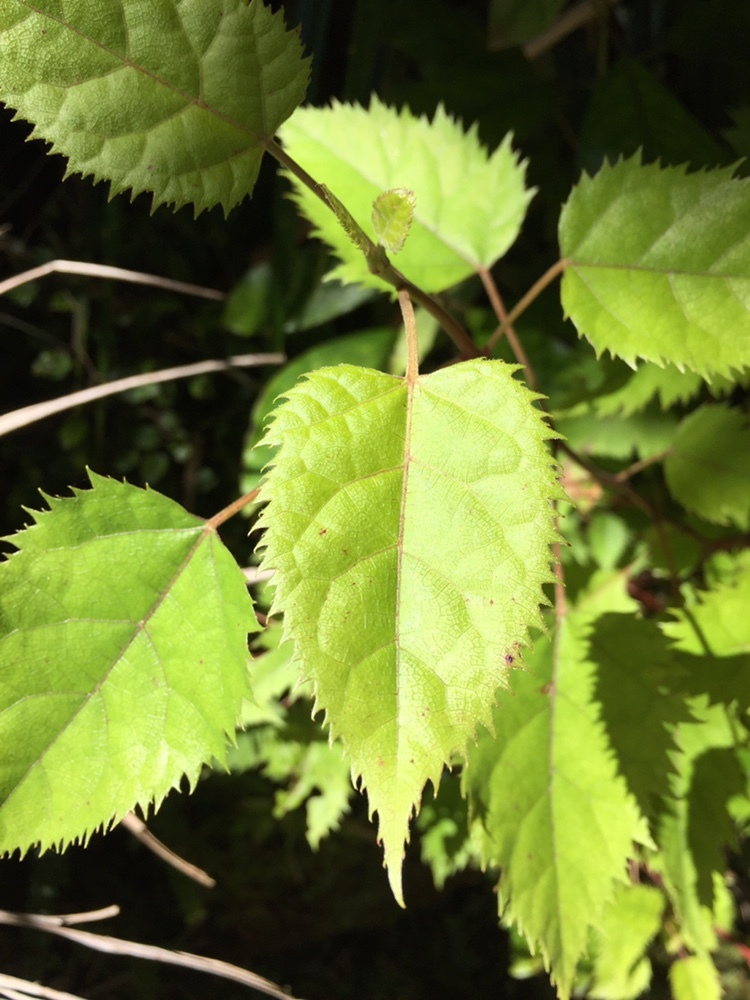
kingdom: Plantae
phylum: Tracheophyta
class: Magnoliopsida
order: Oxalidales
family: Elaeocarpaceae
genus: Aristotelia
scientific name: Aristotelia serrata
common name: New zealand wineberry
